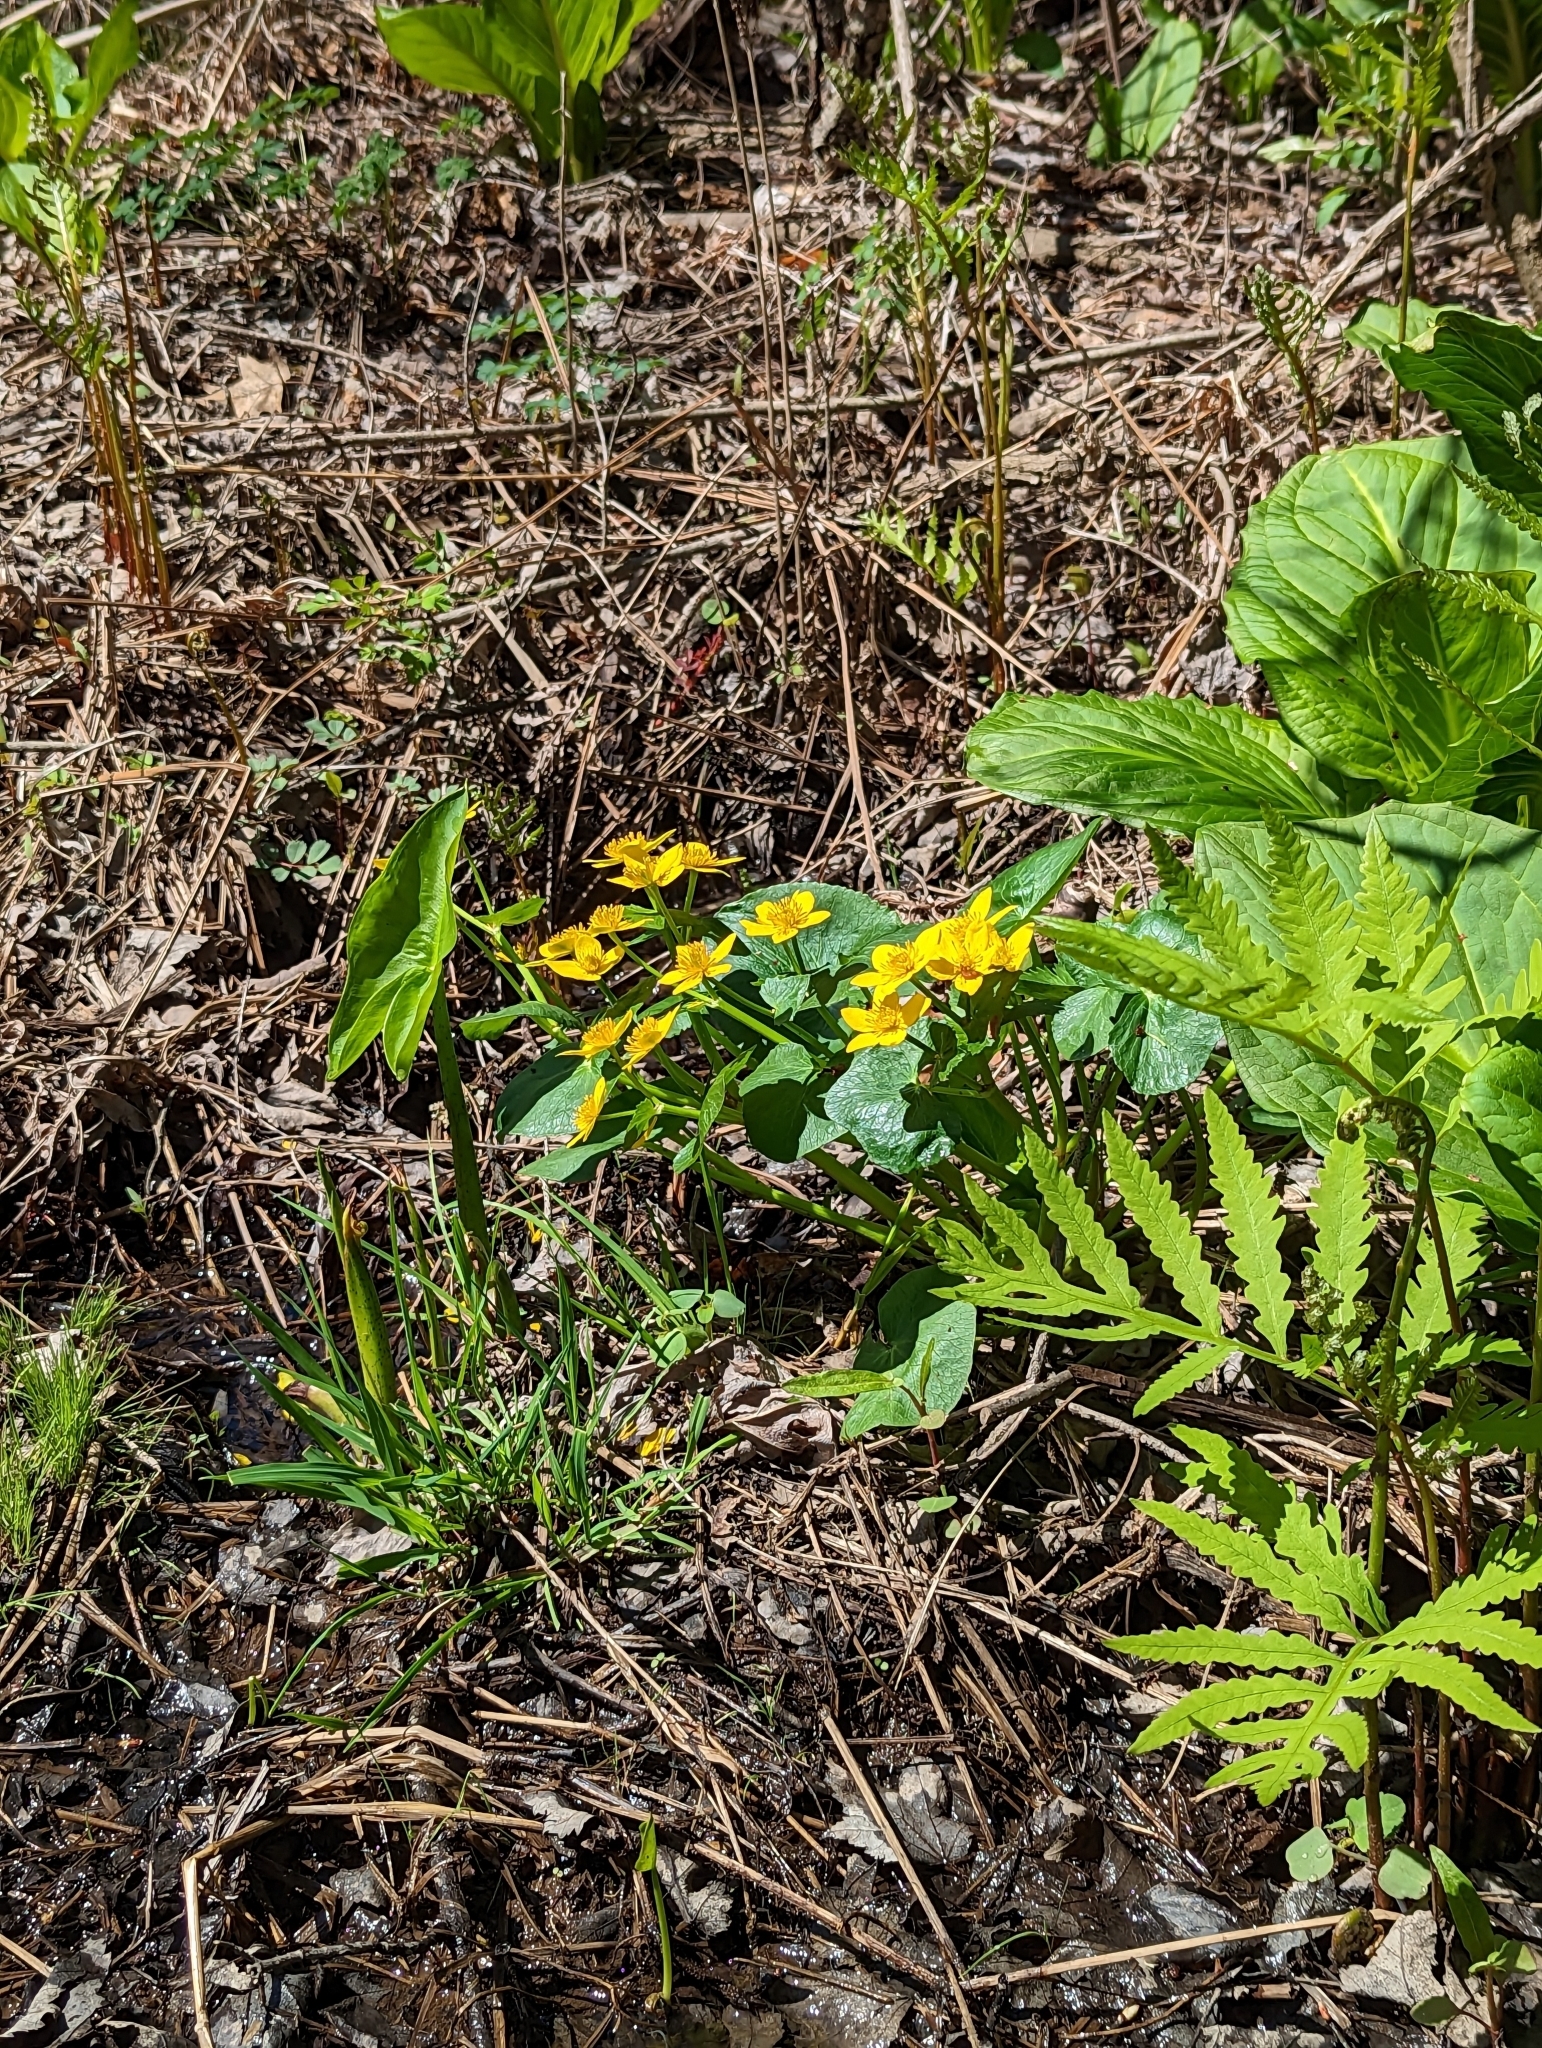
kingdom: Plantae
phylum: Tracheophyta
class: Magnoliopsida
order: Ranunculales
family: Ranunculaceae
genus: Caltha
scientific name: Caltha palustris
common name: Marsh marigold
